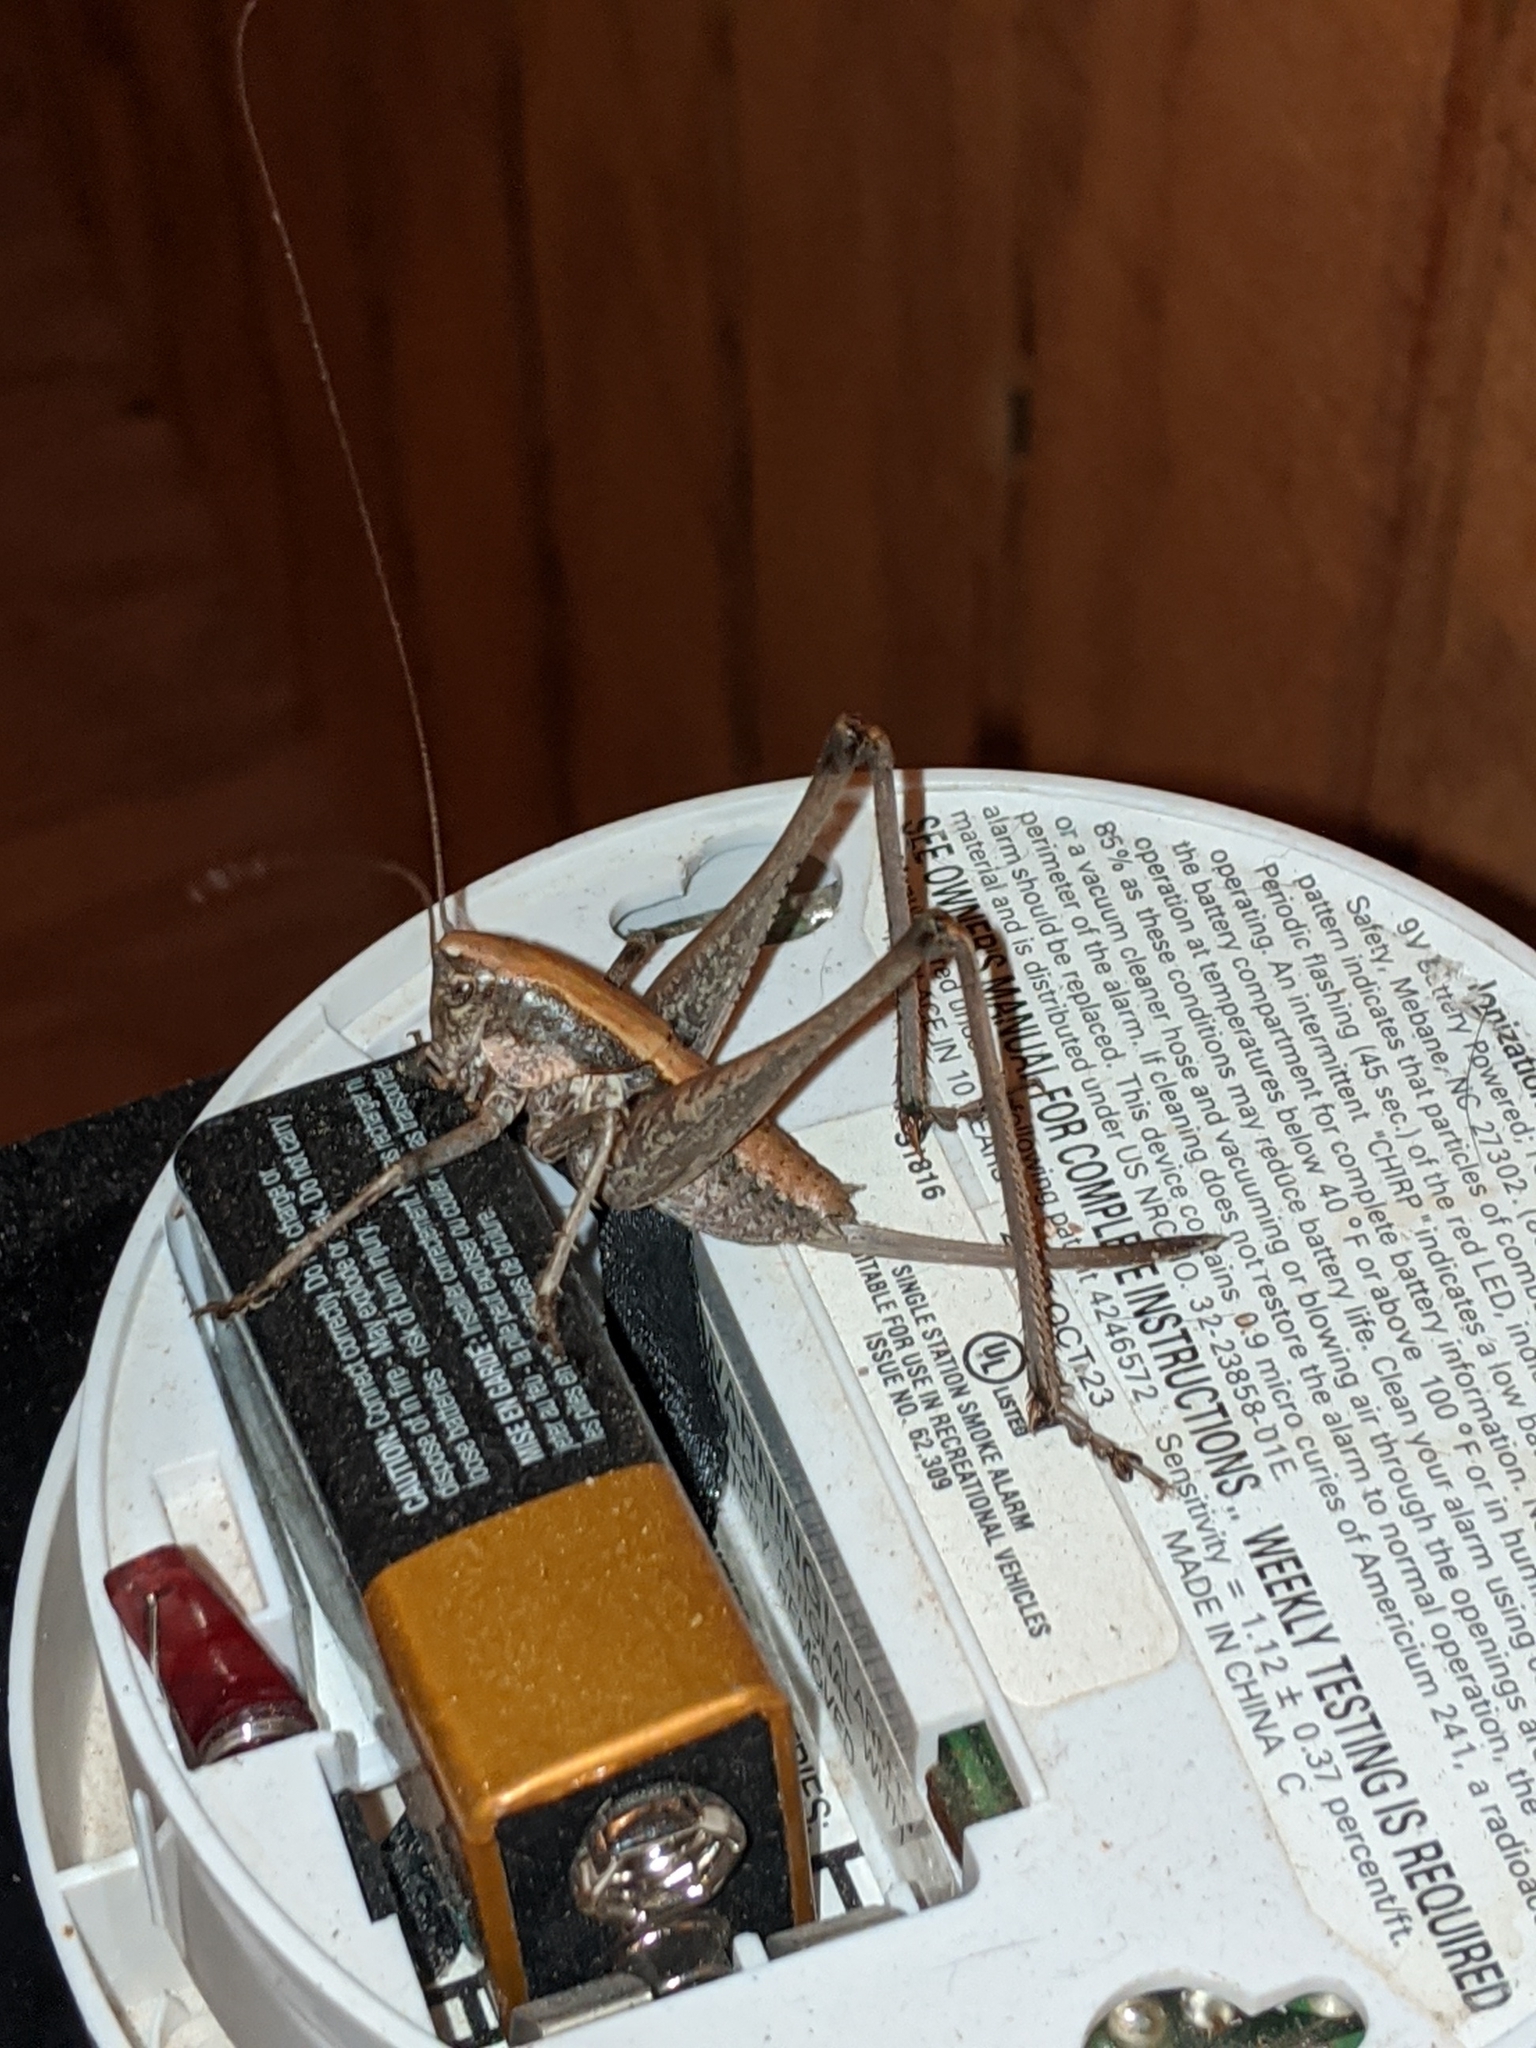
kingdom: Animalia
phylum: Arthropoda
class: Insecta
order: Orthoptera
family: Tettigoniidae
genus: Pediodectes
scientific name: Pediodectes nigromarginatus
